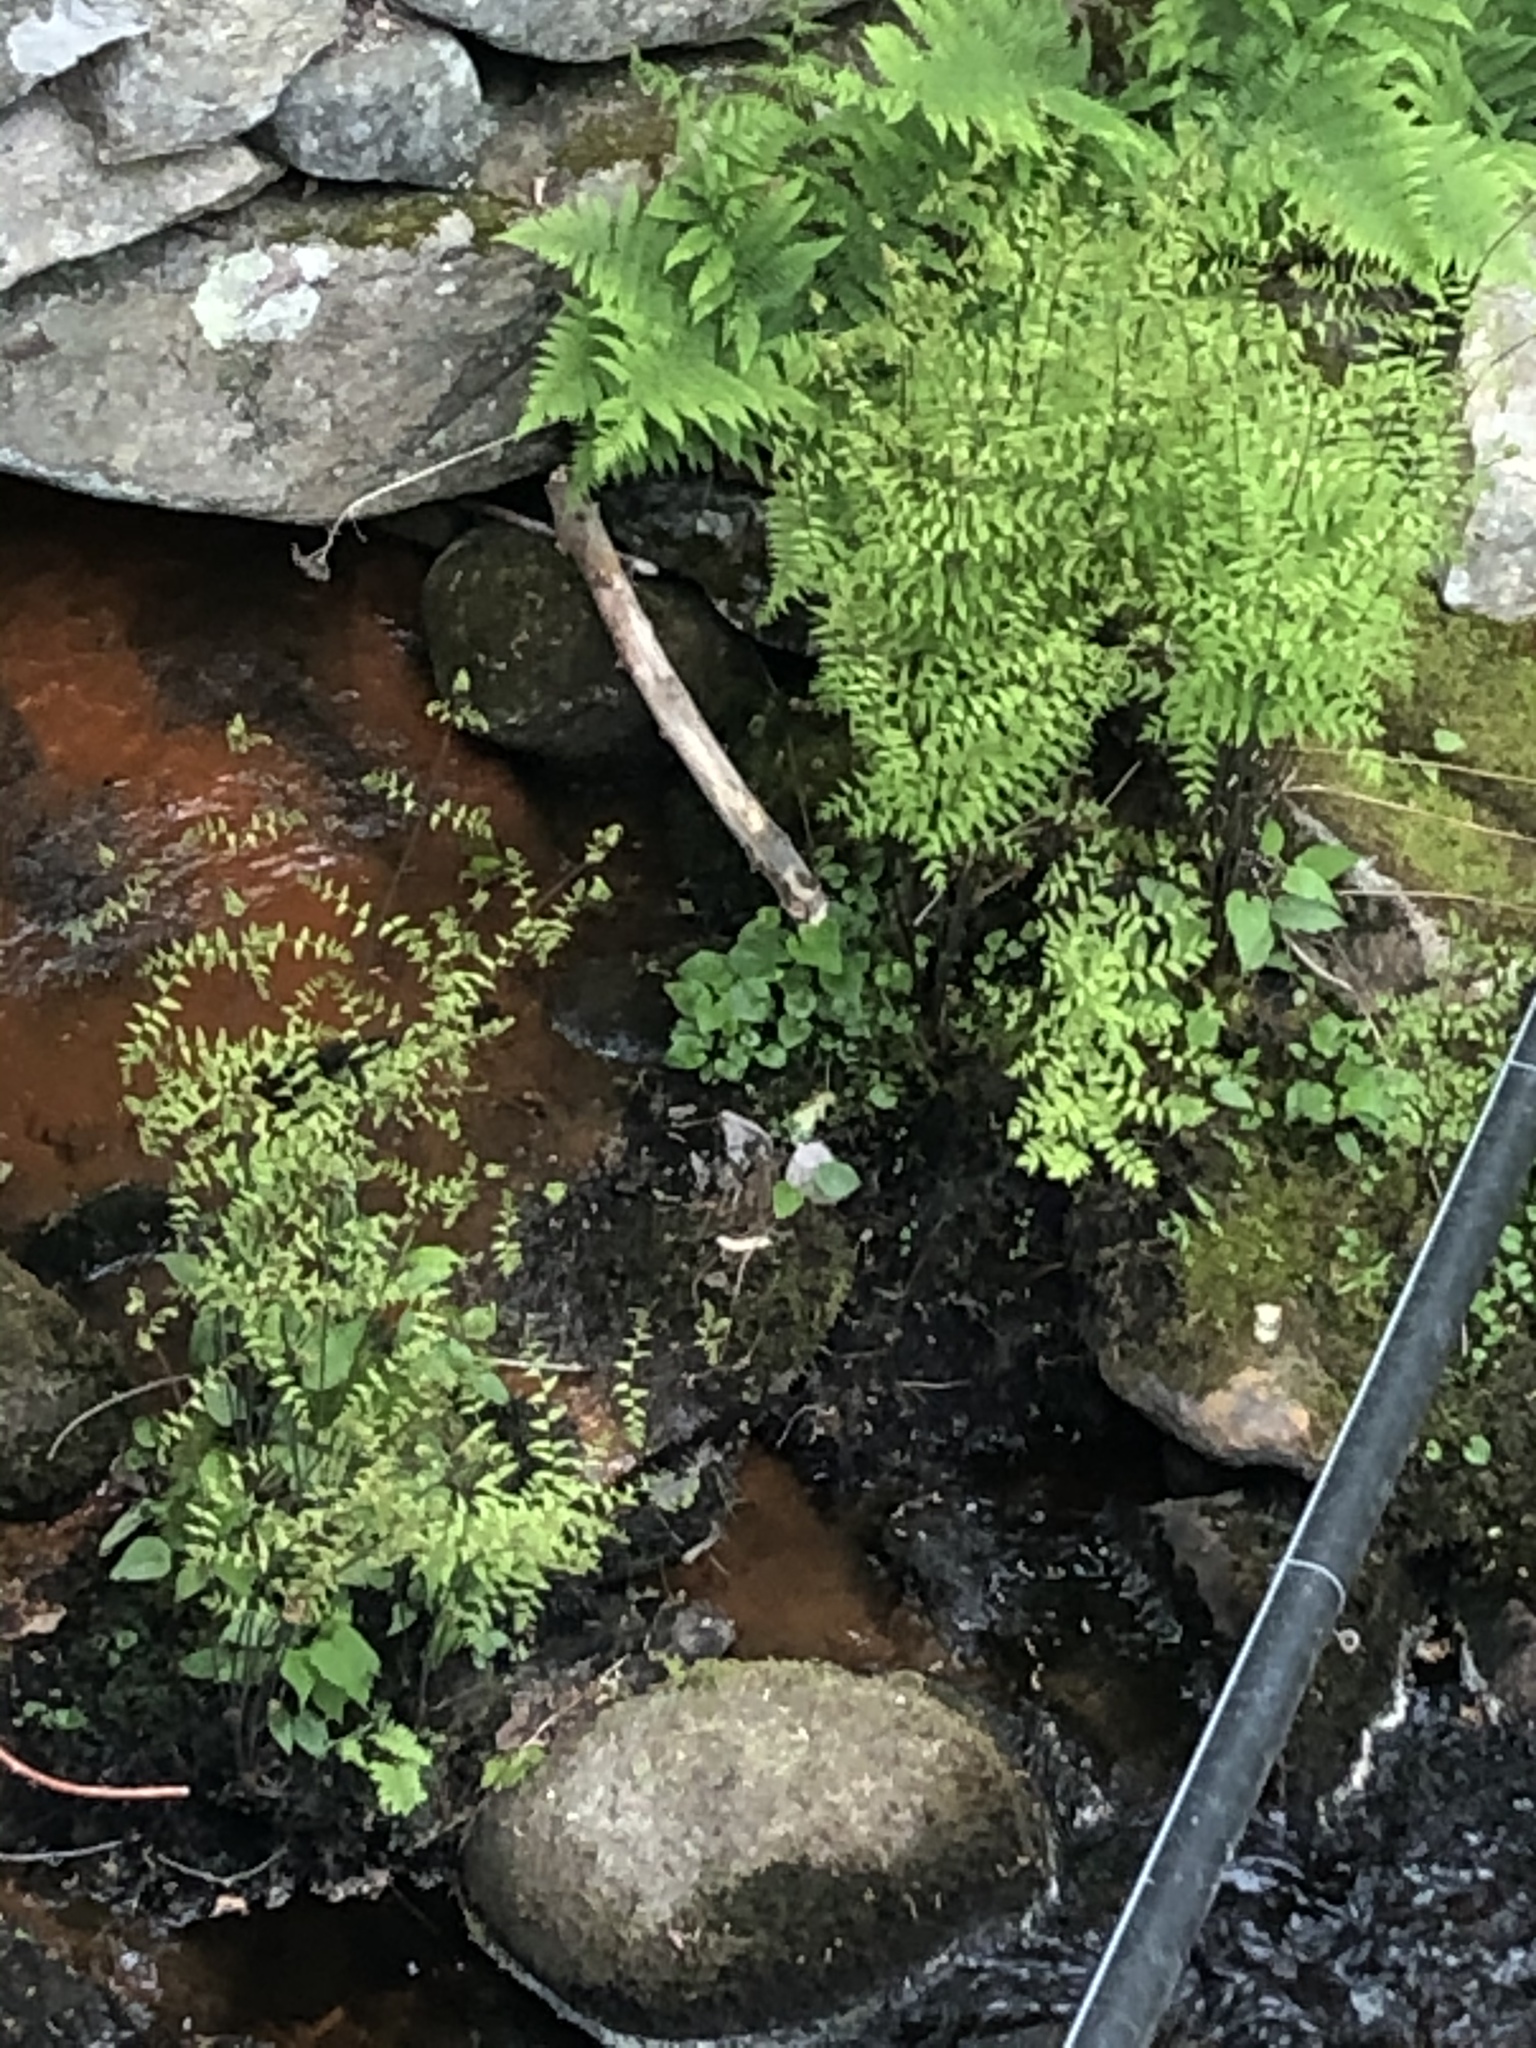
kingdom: Plantae
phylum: Tracheophyta
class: Polypodiopsida
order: Osmundales
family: Osmundaceae
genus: Osmunda
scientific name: Osmunda spectabilis
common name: American royal fern
